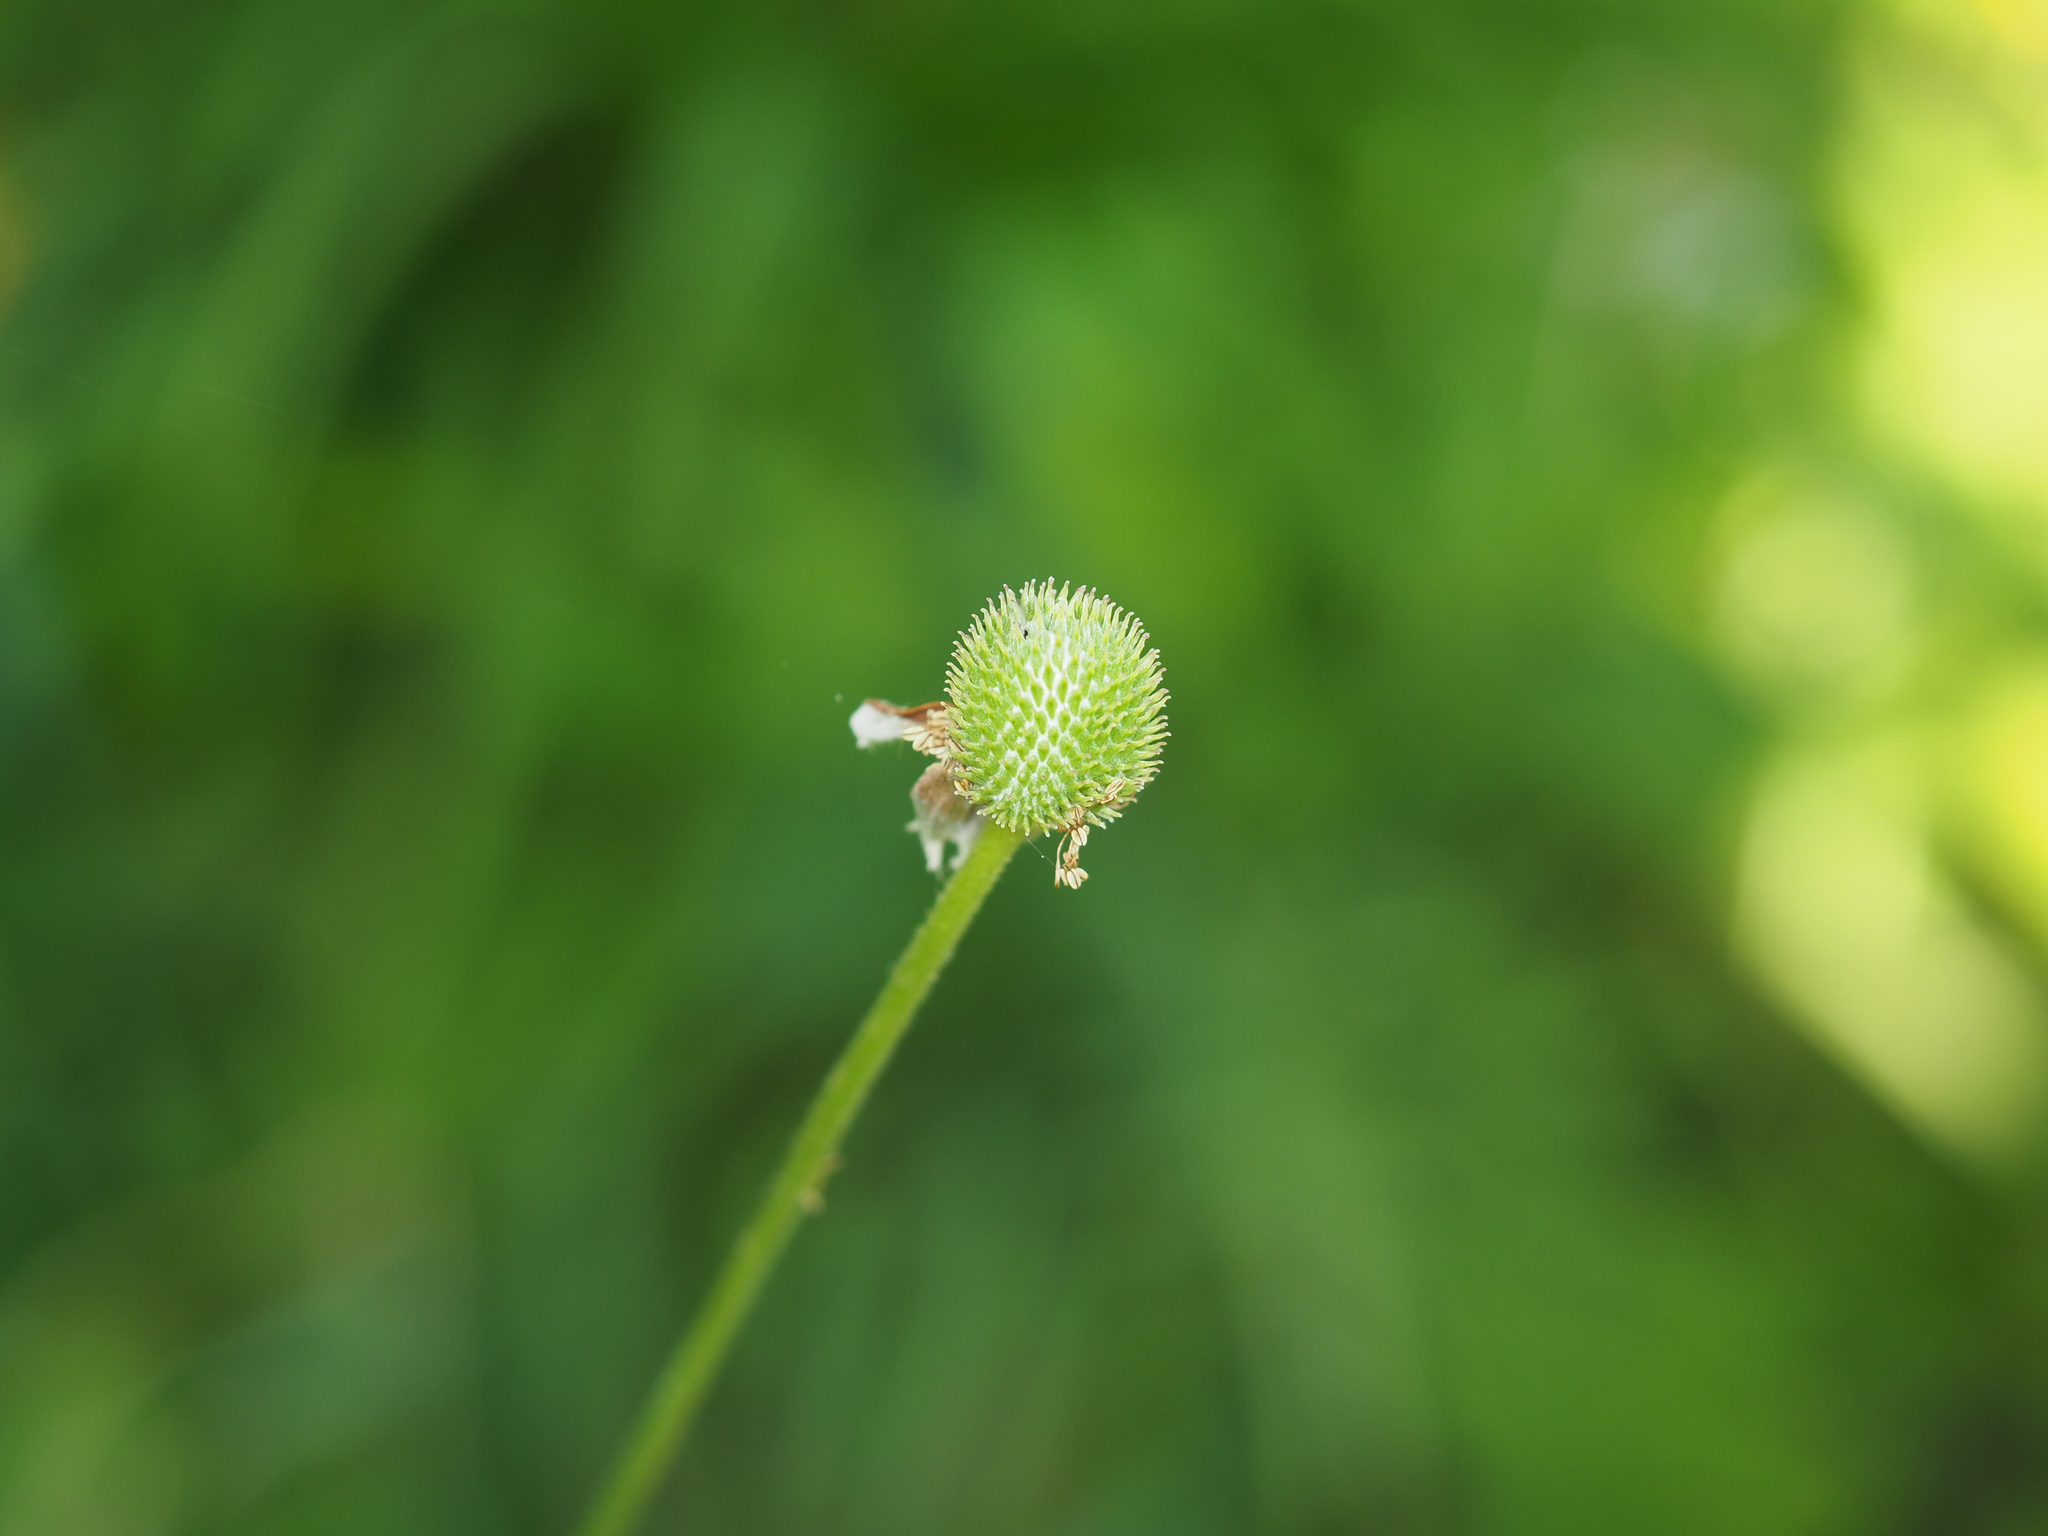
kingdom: Plantae
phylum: Tracheophyta
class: Magnoliopsida
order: Ranunculales
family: Ranunculaceae
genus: Anemone
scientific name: Anemone virginiana
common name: Tall anemone
